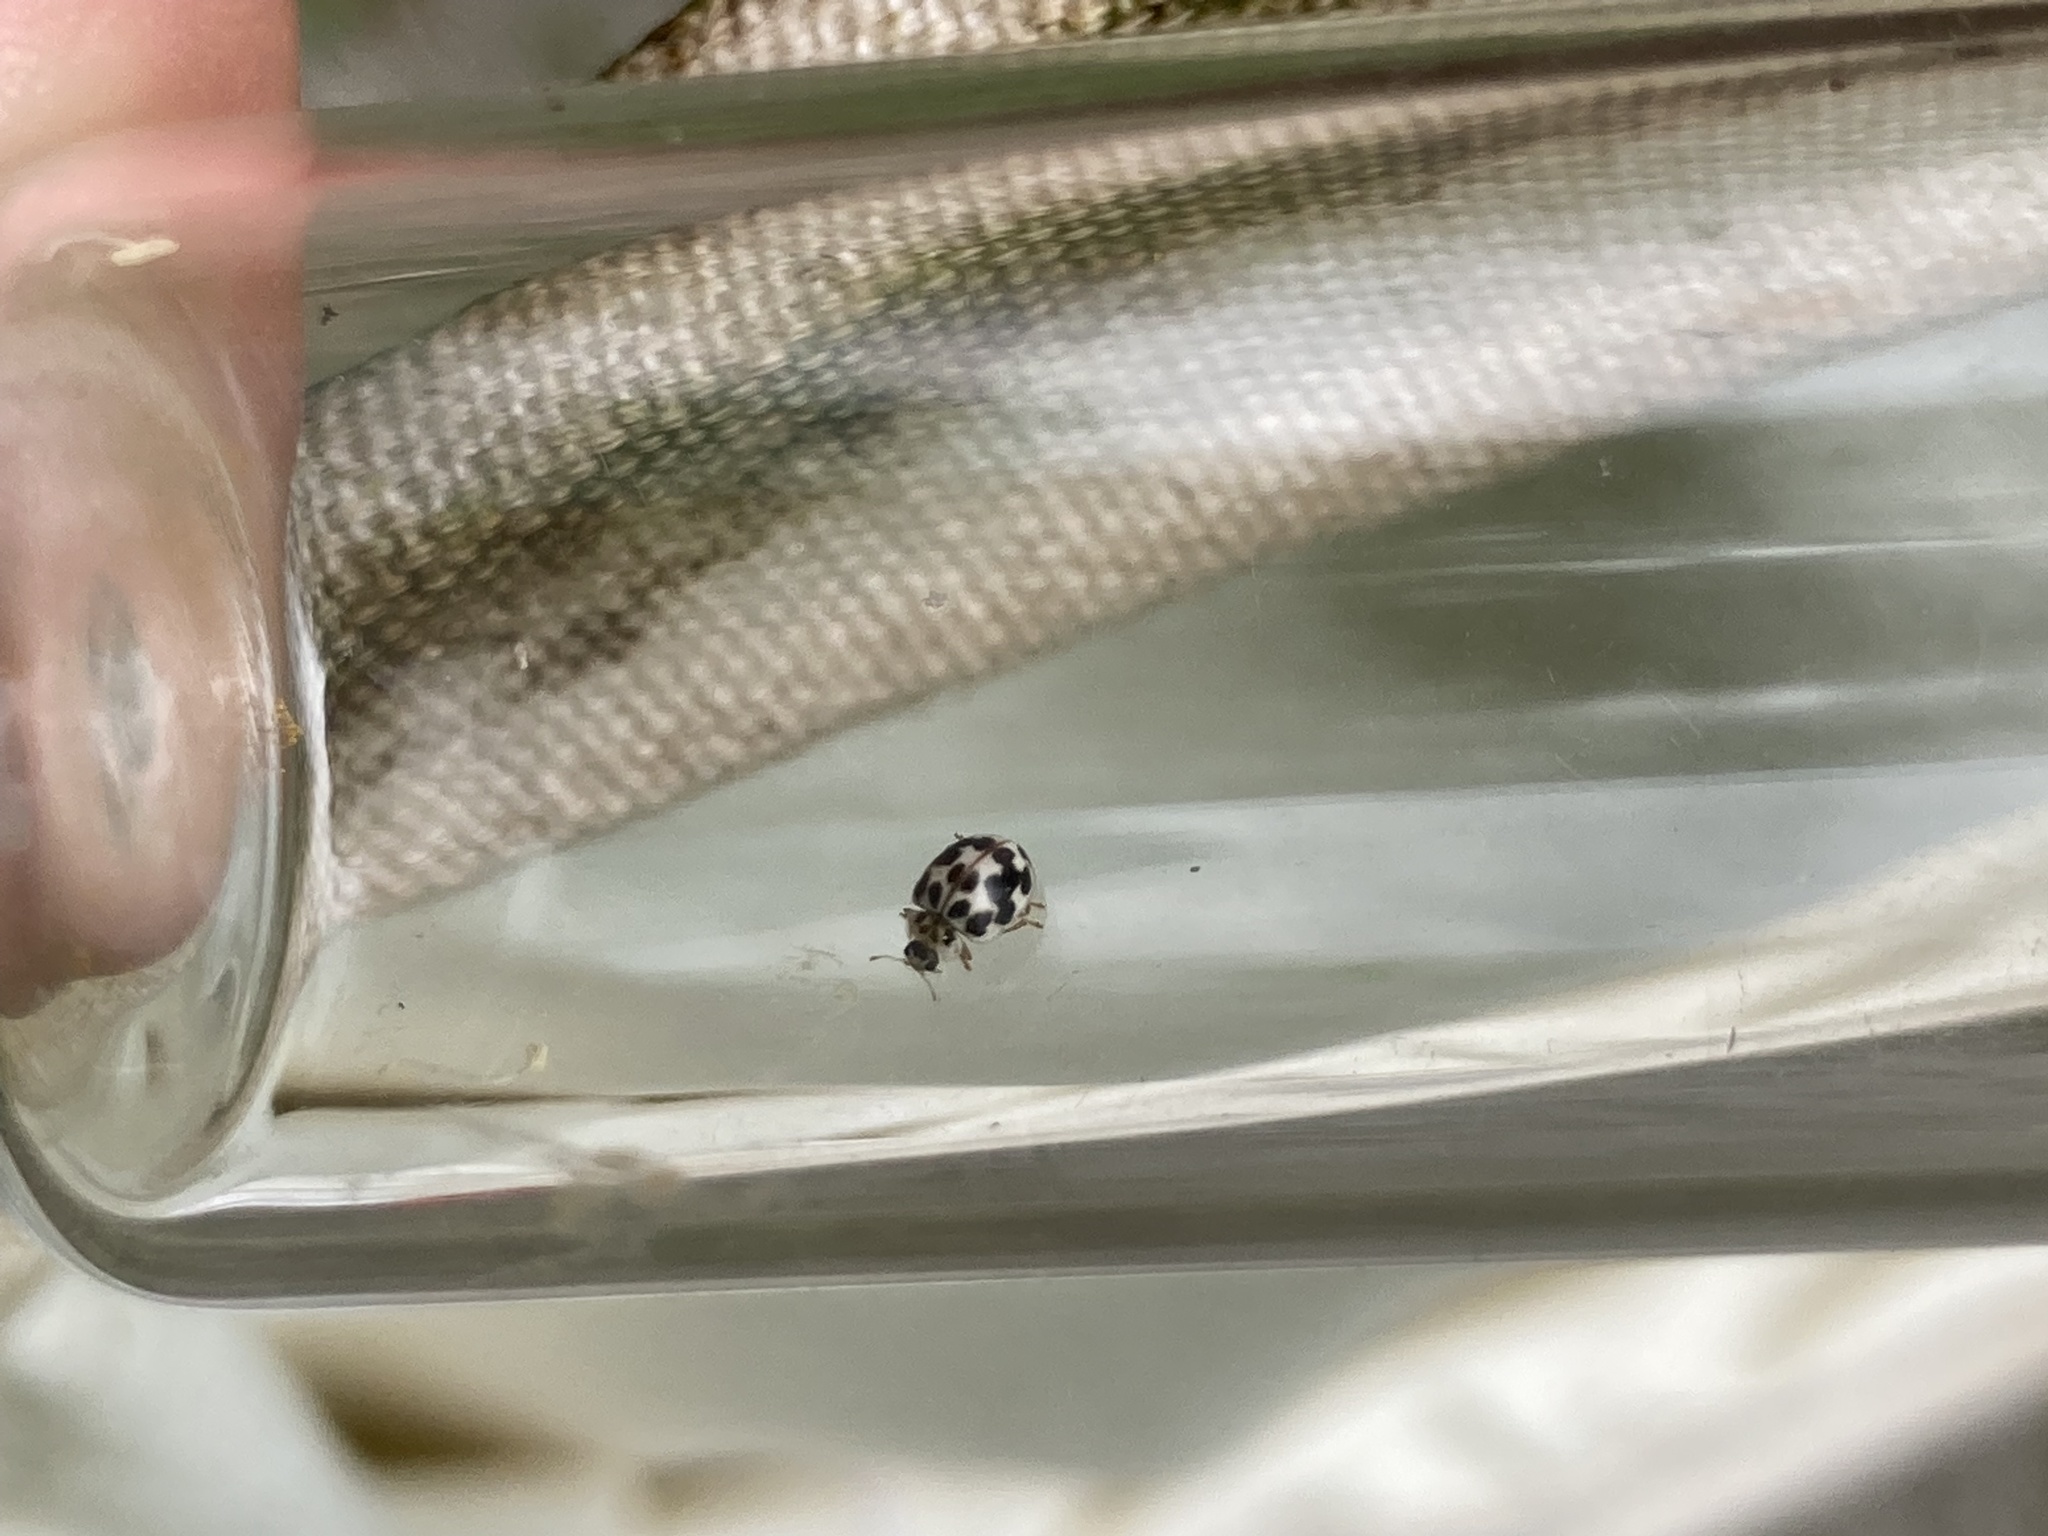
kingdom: Animalia
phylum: Arthropoda
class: Insecta
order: Coleoptera
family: Coccinellidae
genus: Psyllobora
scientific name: Psyllobora vigintimaculata
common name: Ladybird beetle
